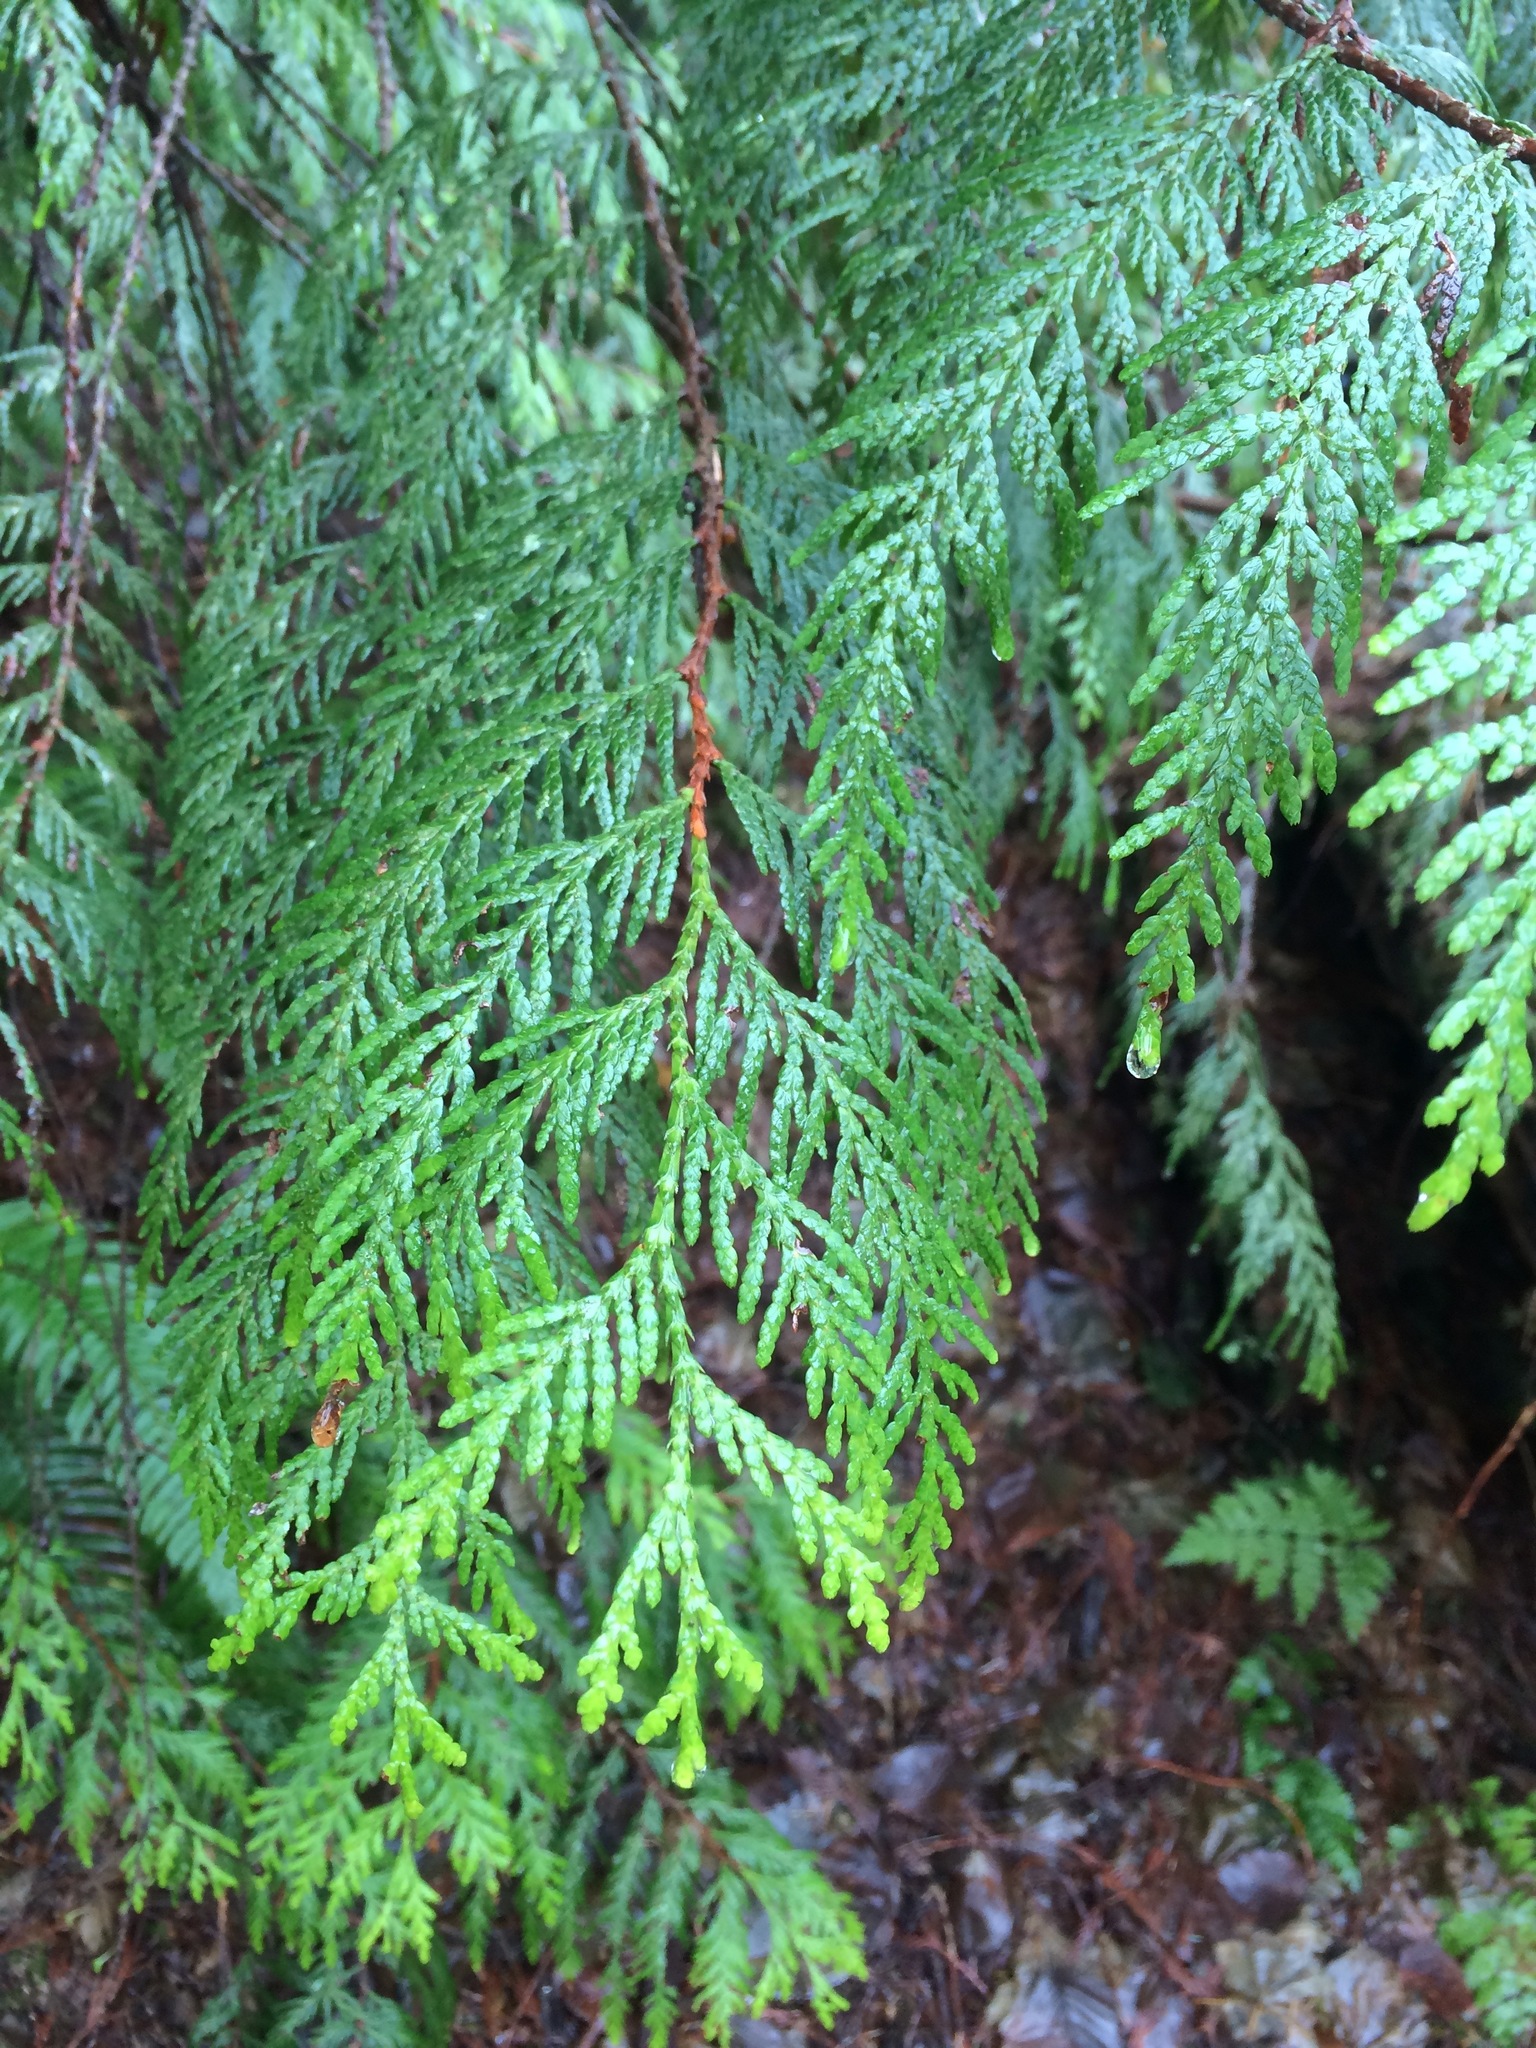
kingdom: Plantae
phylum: Tracheophyta
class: Pinopsida
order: Pinales
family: Cupressaceae
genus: Thuja
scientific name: Thuja plicata
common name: Western red-cedar
